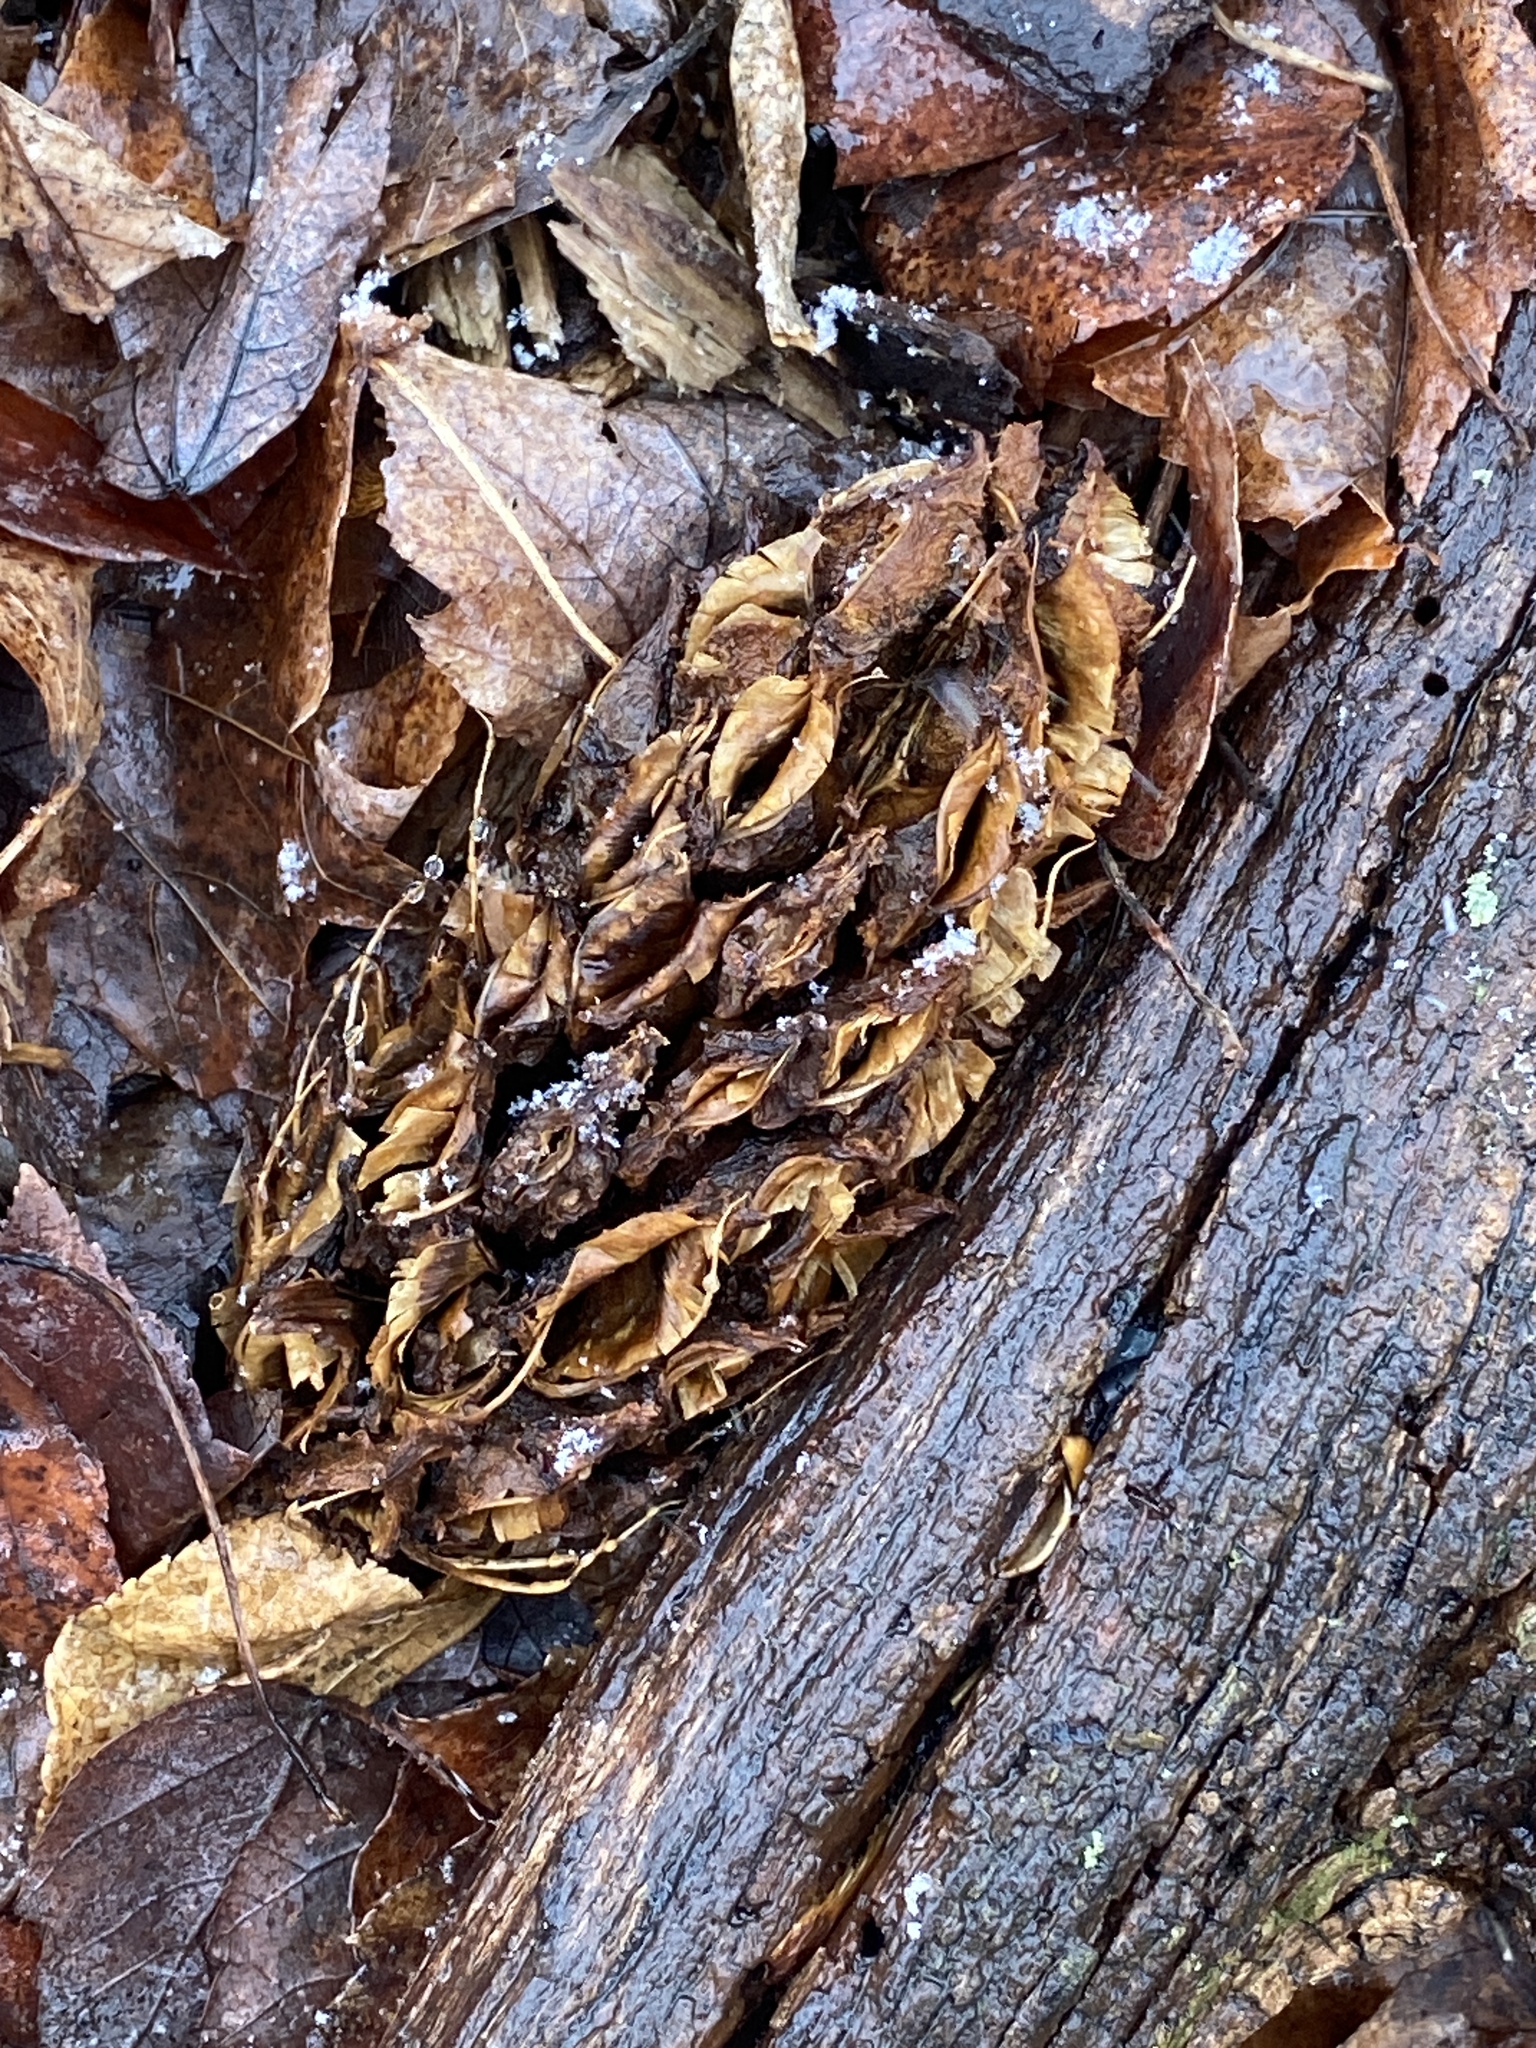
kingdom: Plantae
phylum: Tracheophyta
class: Magnoliopsida
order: Magnoliales
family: Magnoliaceae
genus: Magnolia
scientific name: Magnolia tripetala
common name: Umbrella magnolia
